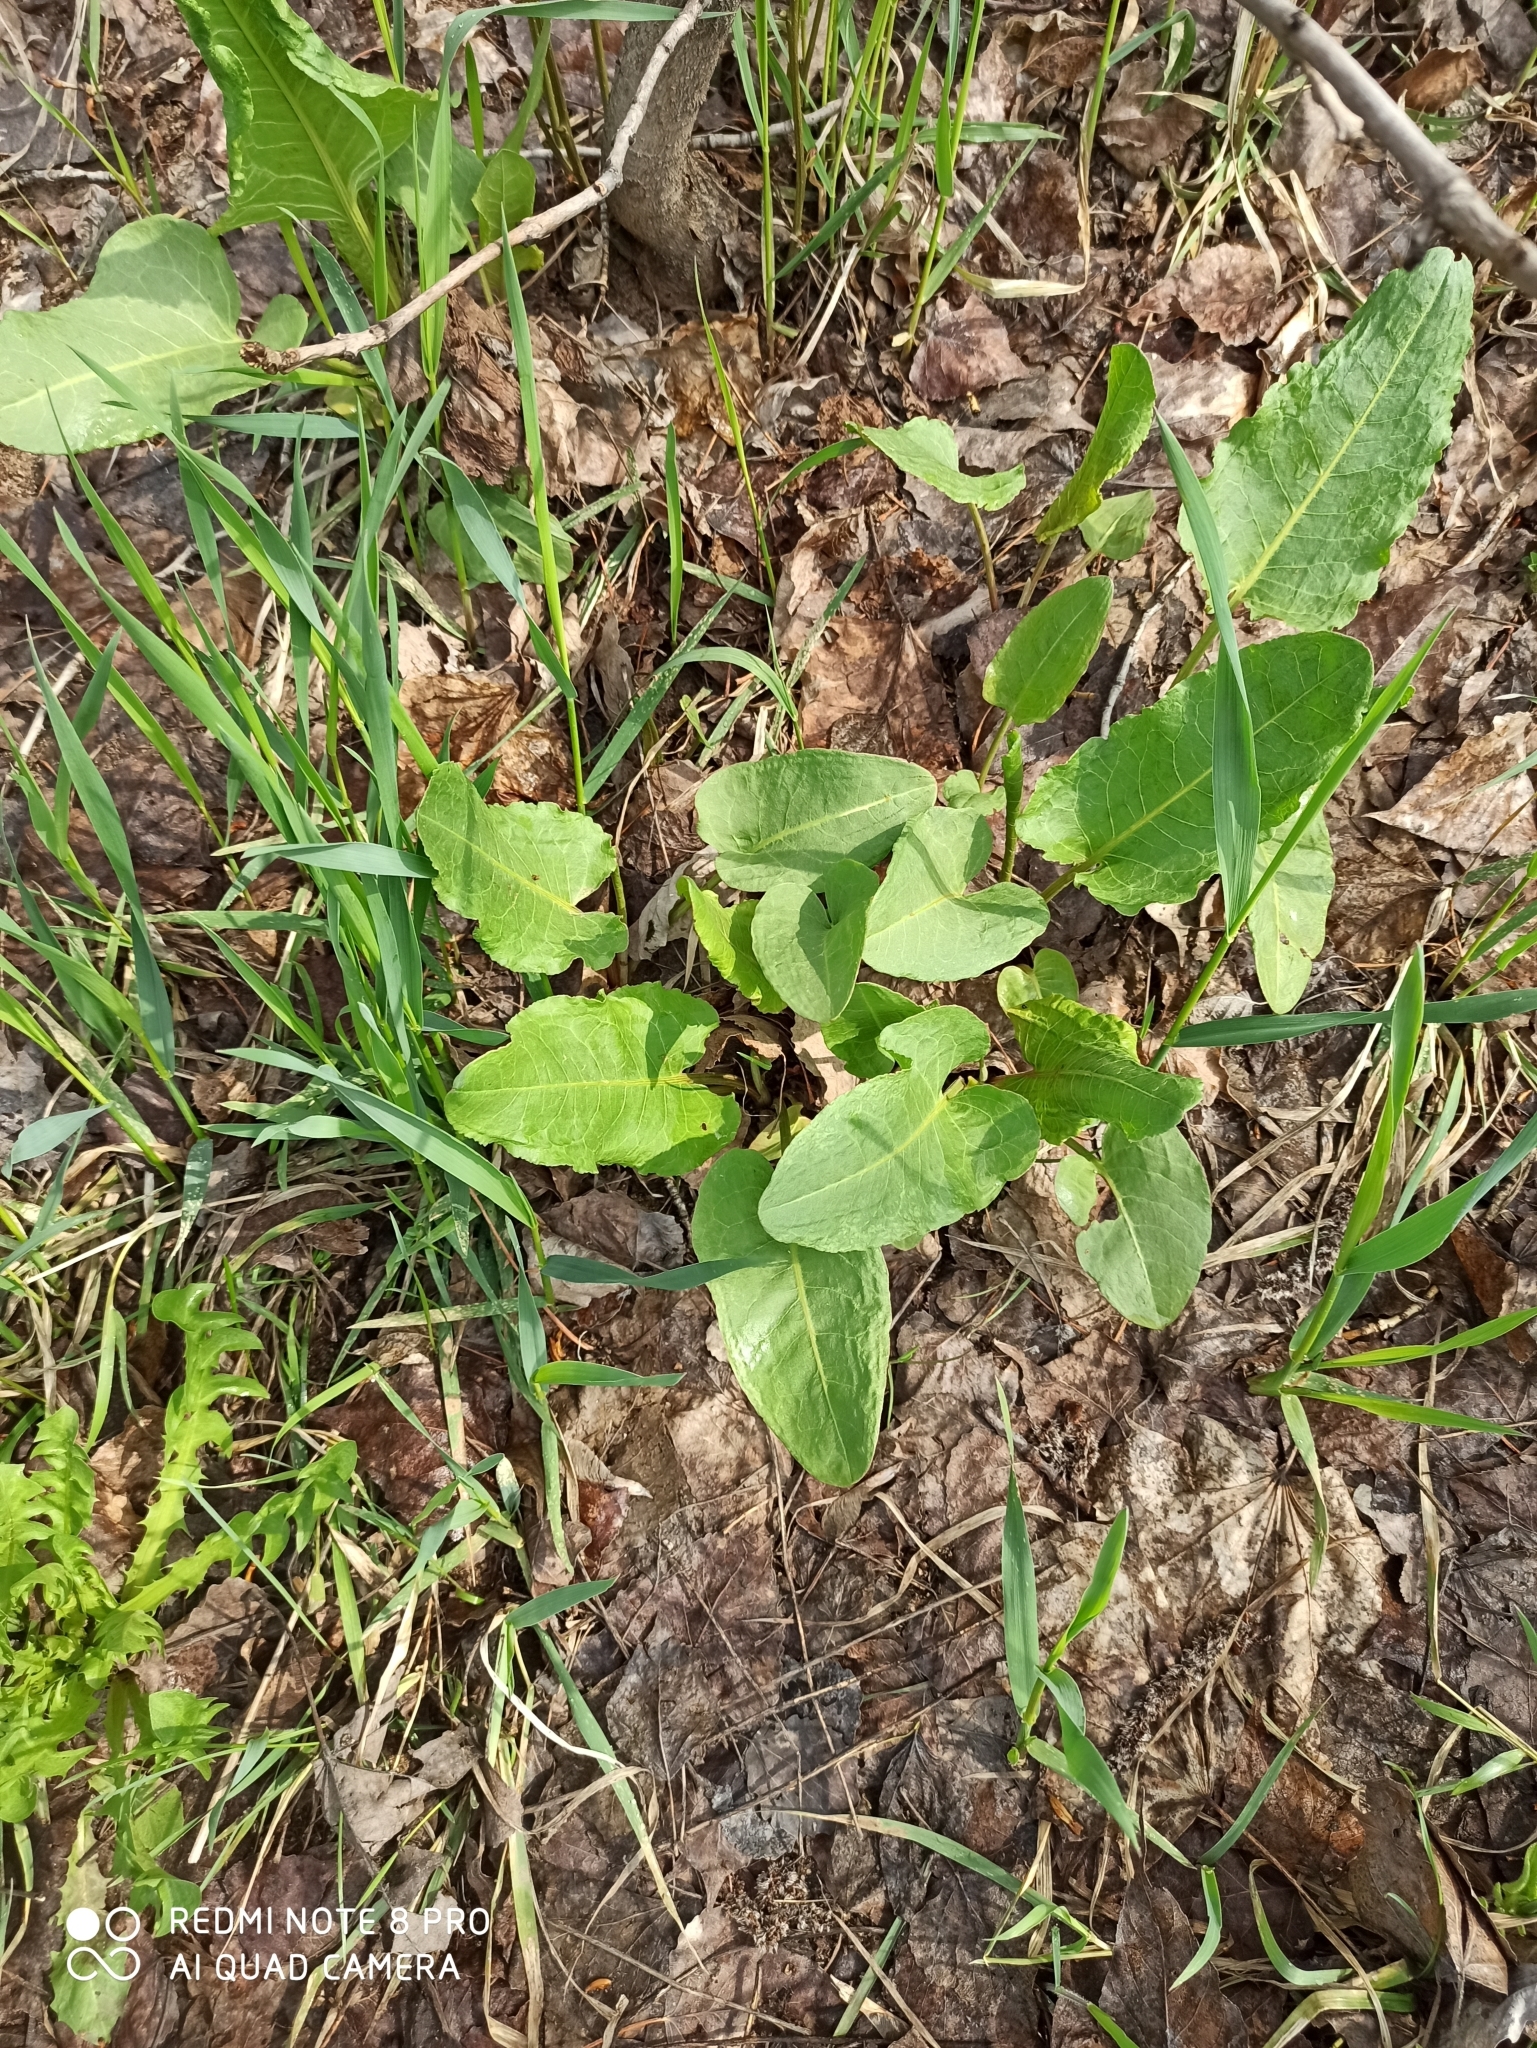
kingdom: Plantae
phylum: Tracheophyta
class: Magnoliopsida
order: Caryophyllales
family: Polygonaceae
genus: Rumex
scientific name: Rumex acetosa
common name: Garden sorrel
